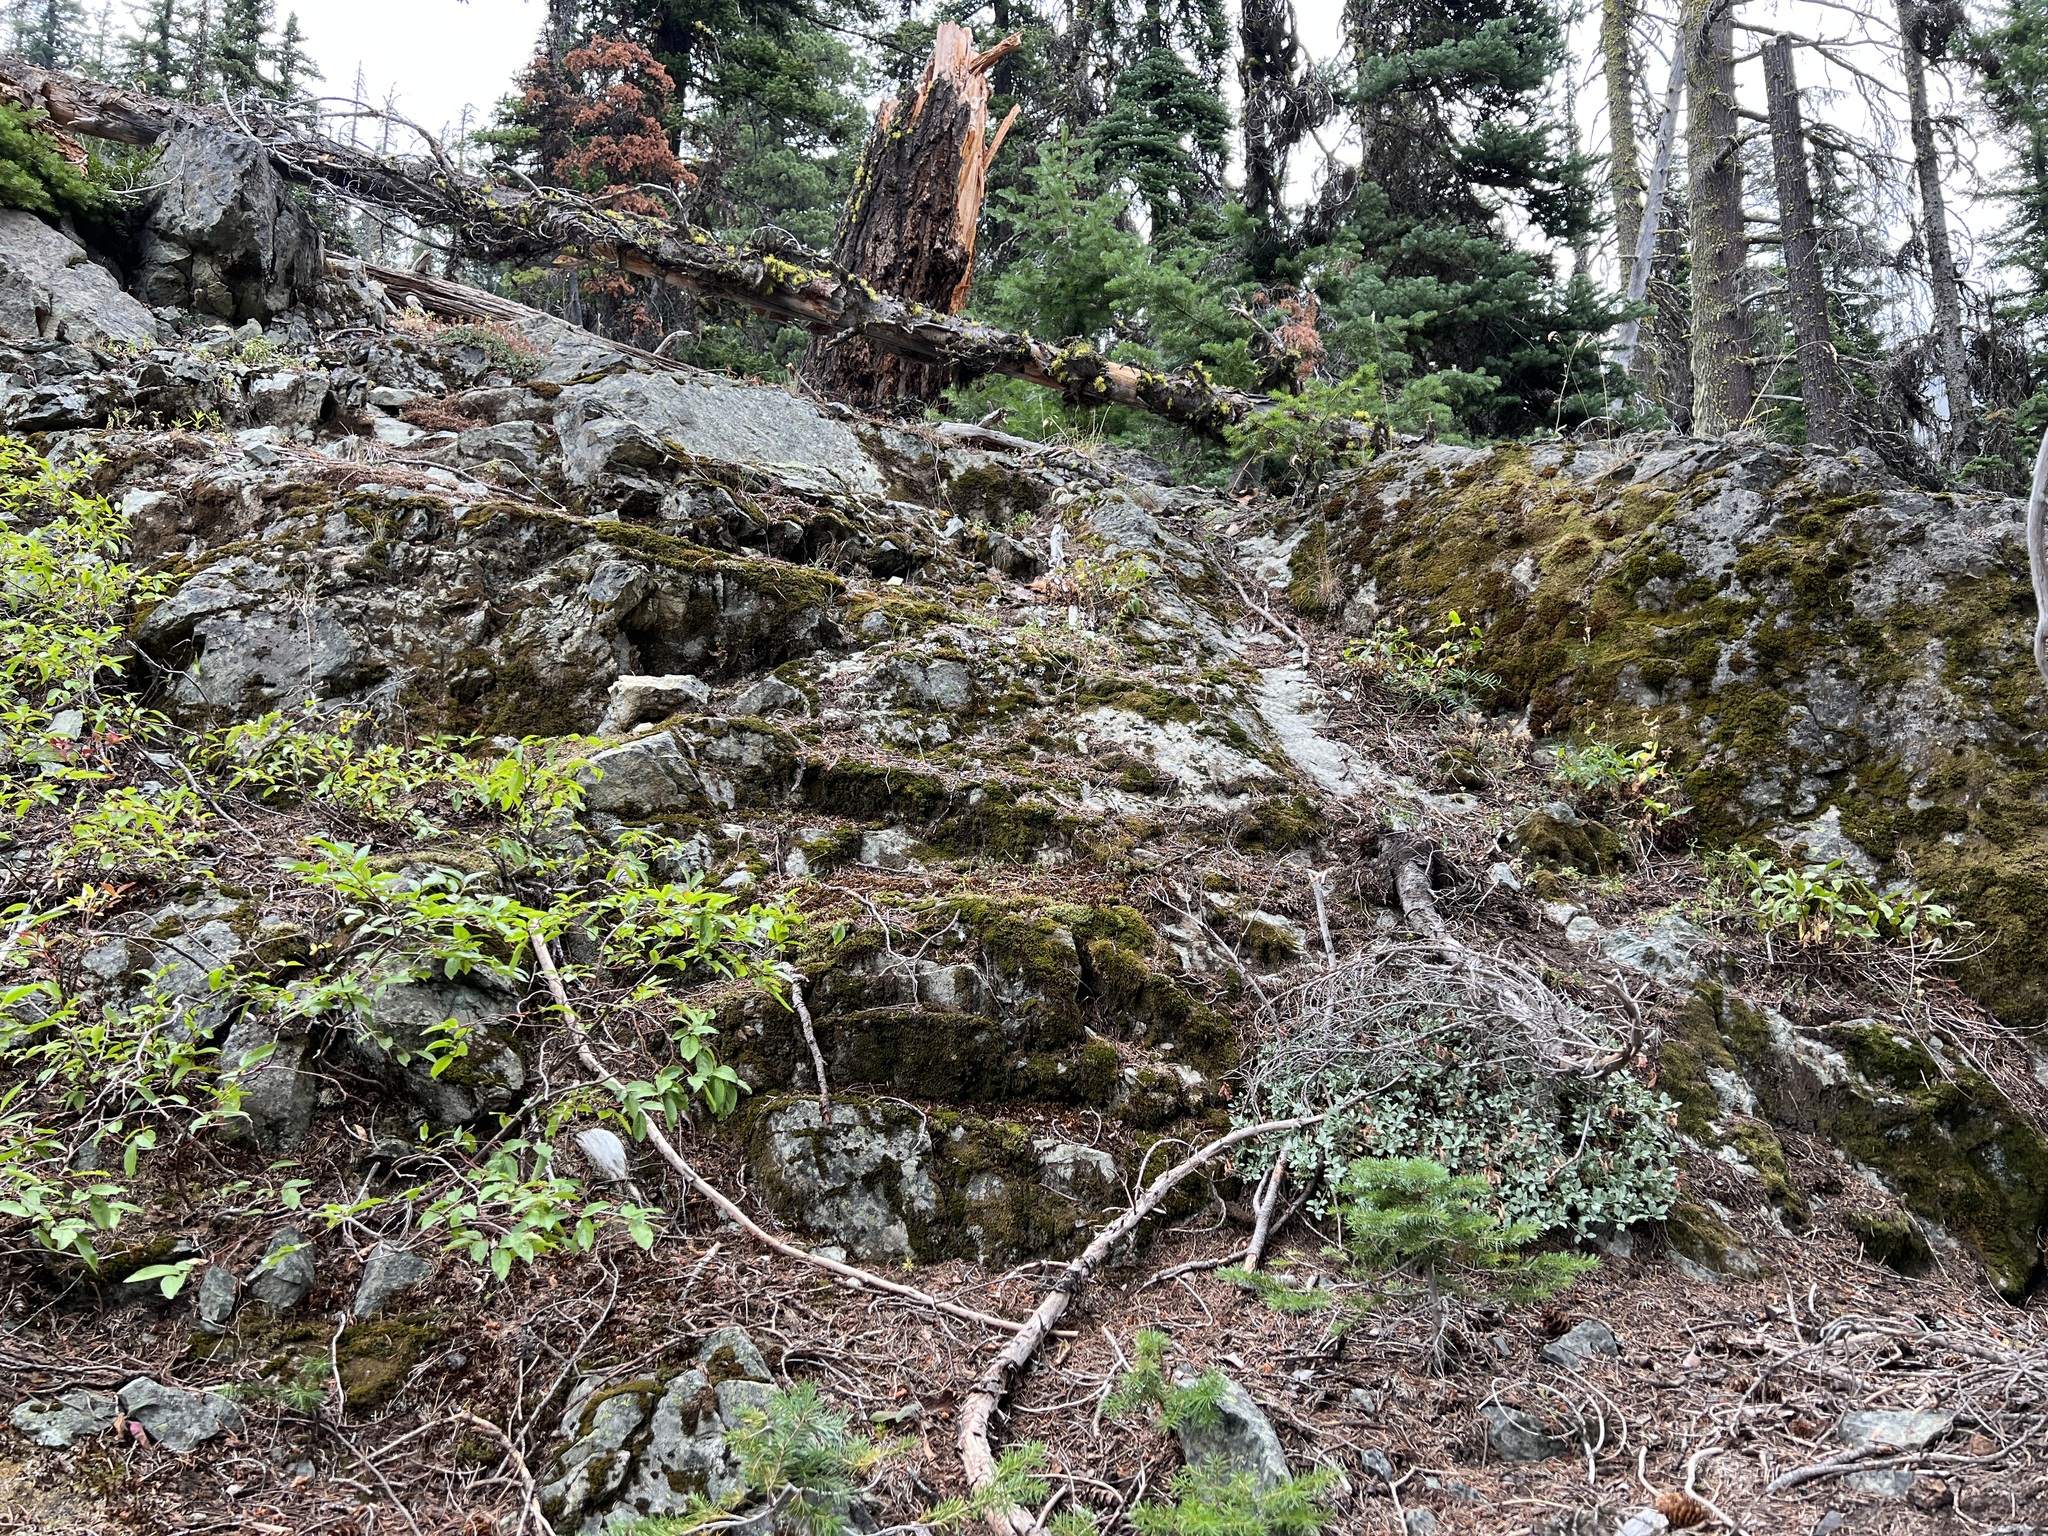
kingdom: Plantae
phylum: Tracheophyta
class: Polypodiopsida
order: Polypodiales
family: Pteridaceae
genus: Myriopteris
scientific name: Myriopteris gracillima
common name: Lace fern
